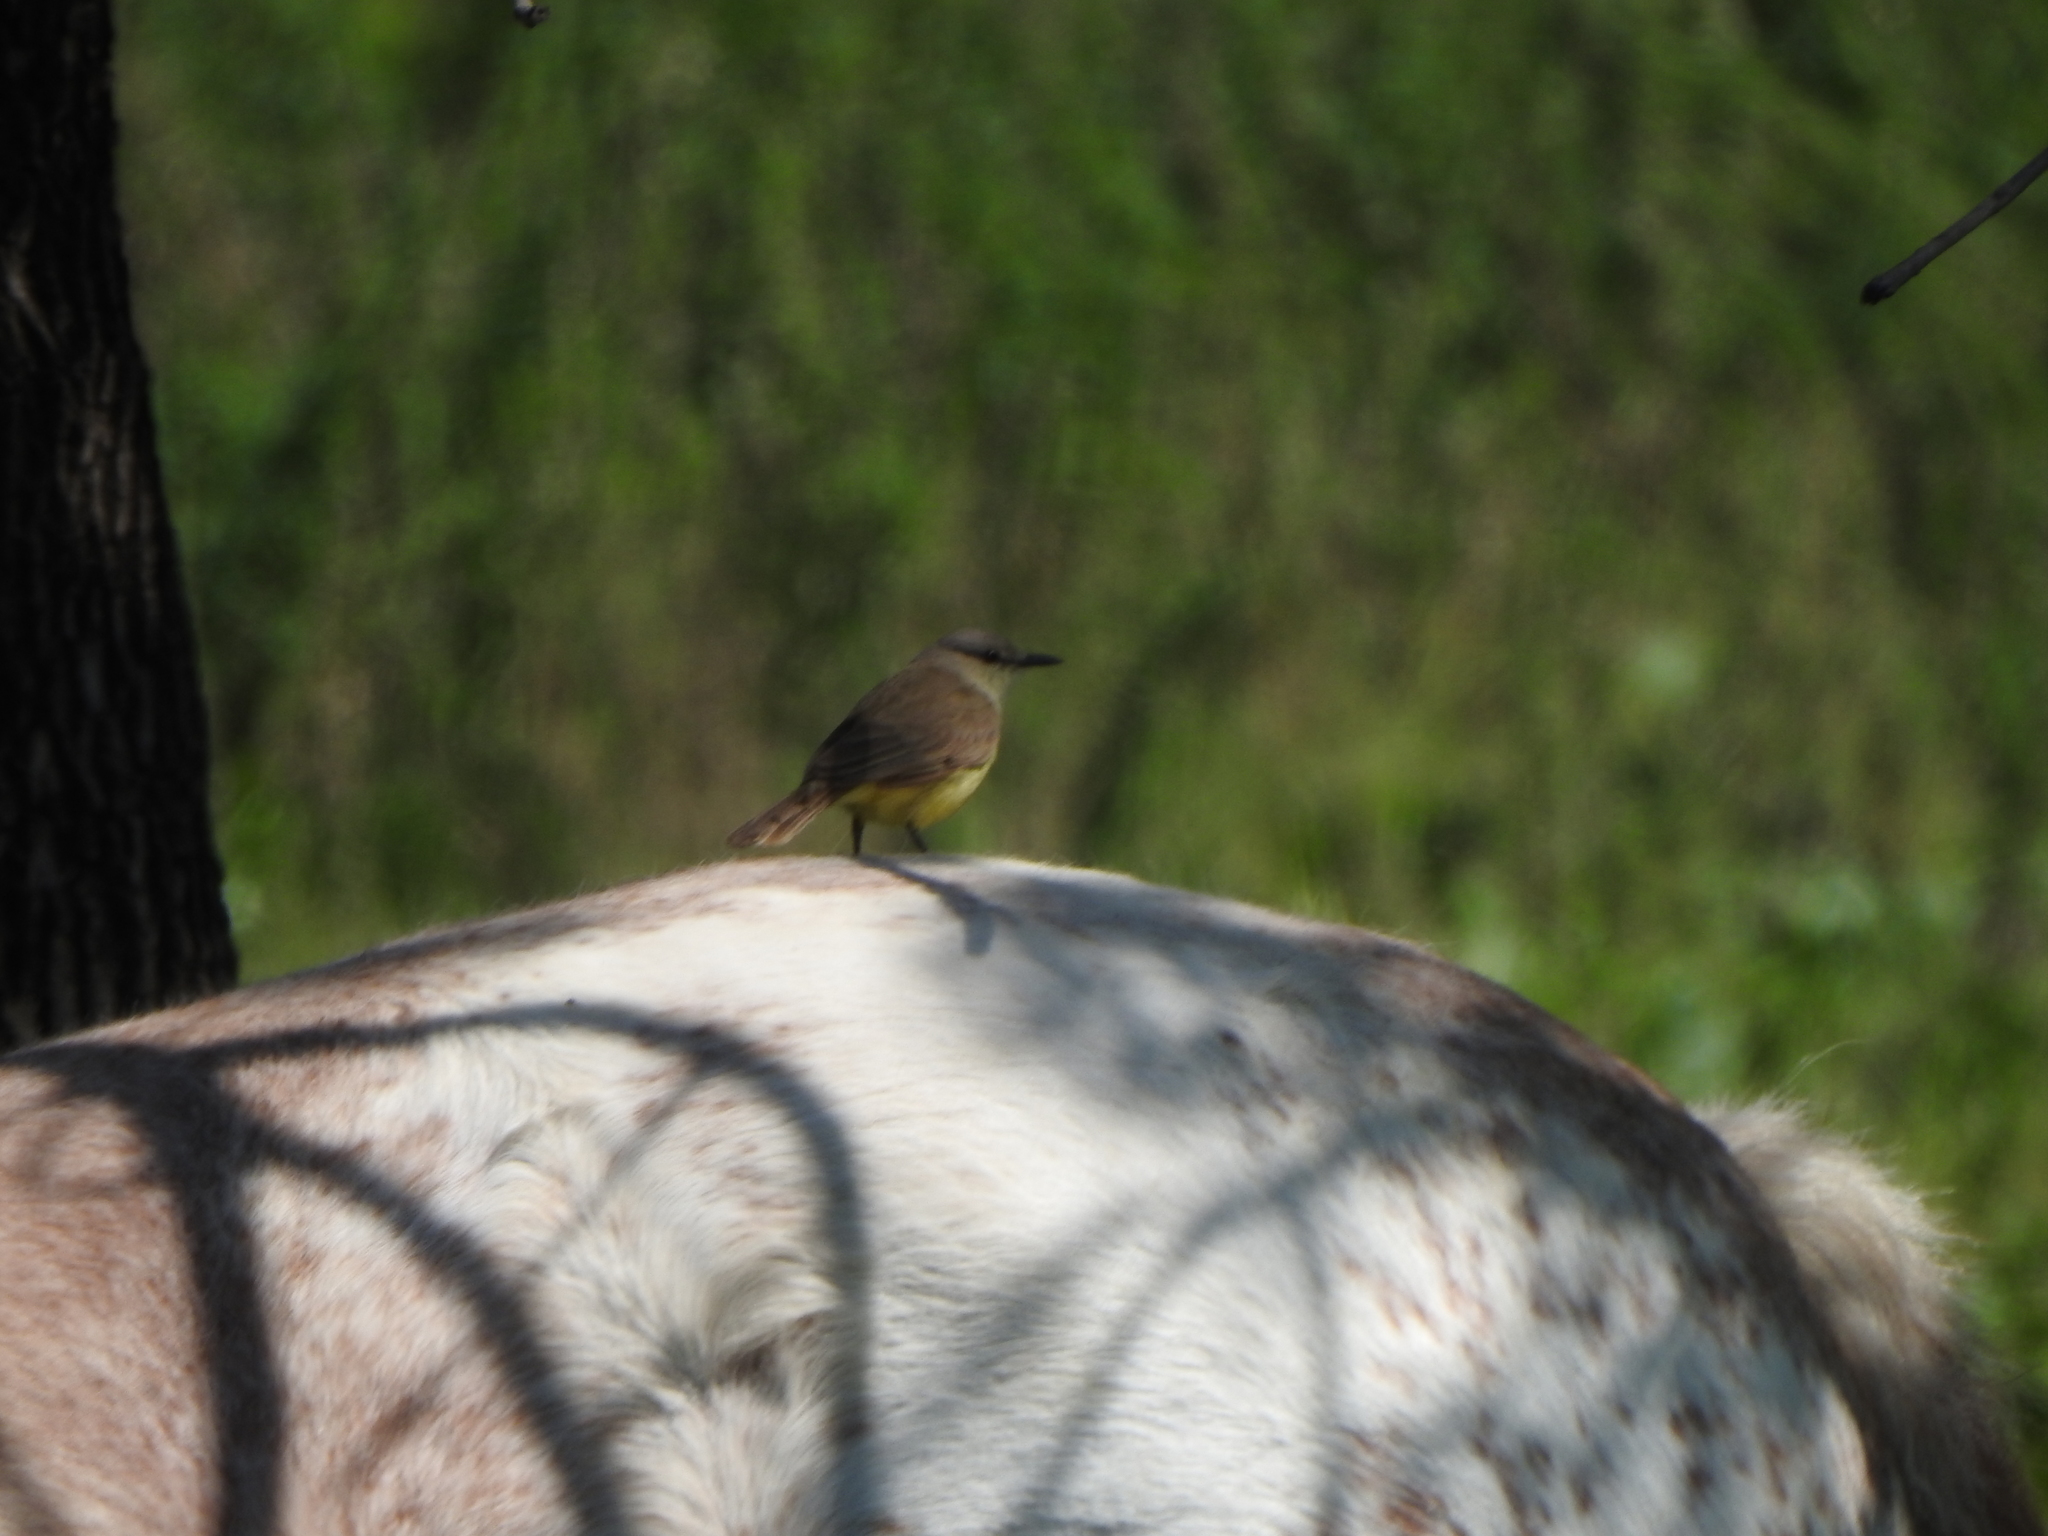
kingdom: Animalia
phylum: Chordata
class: Aves
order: Passeriformes
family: Tyrannidae
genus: Machetornis
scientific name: Machetornis rixosa
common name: Cattle tyrant
